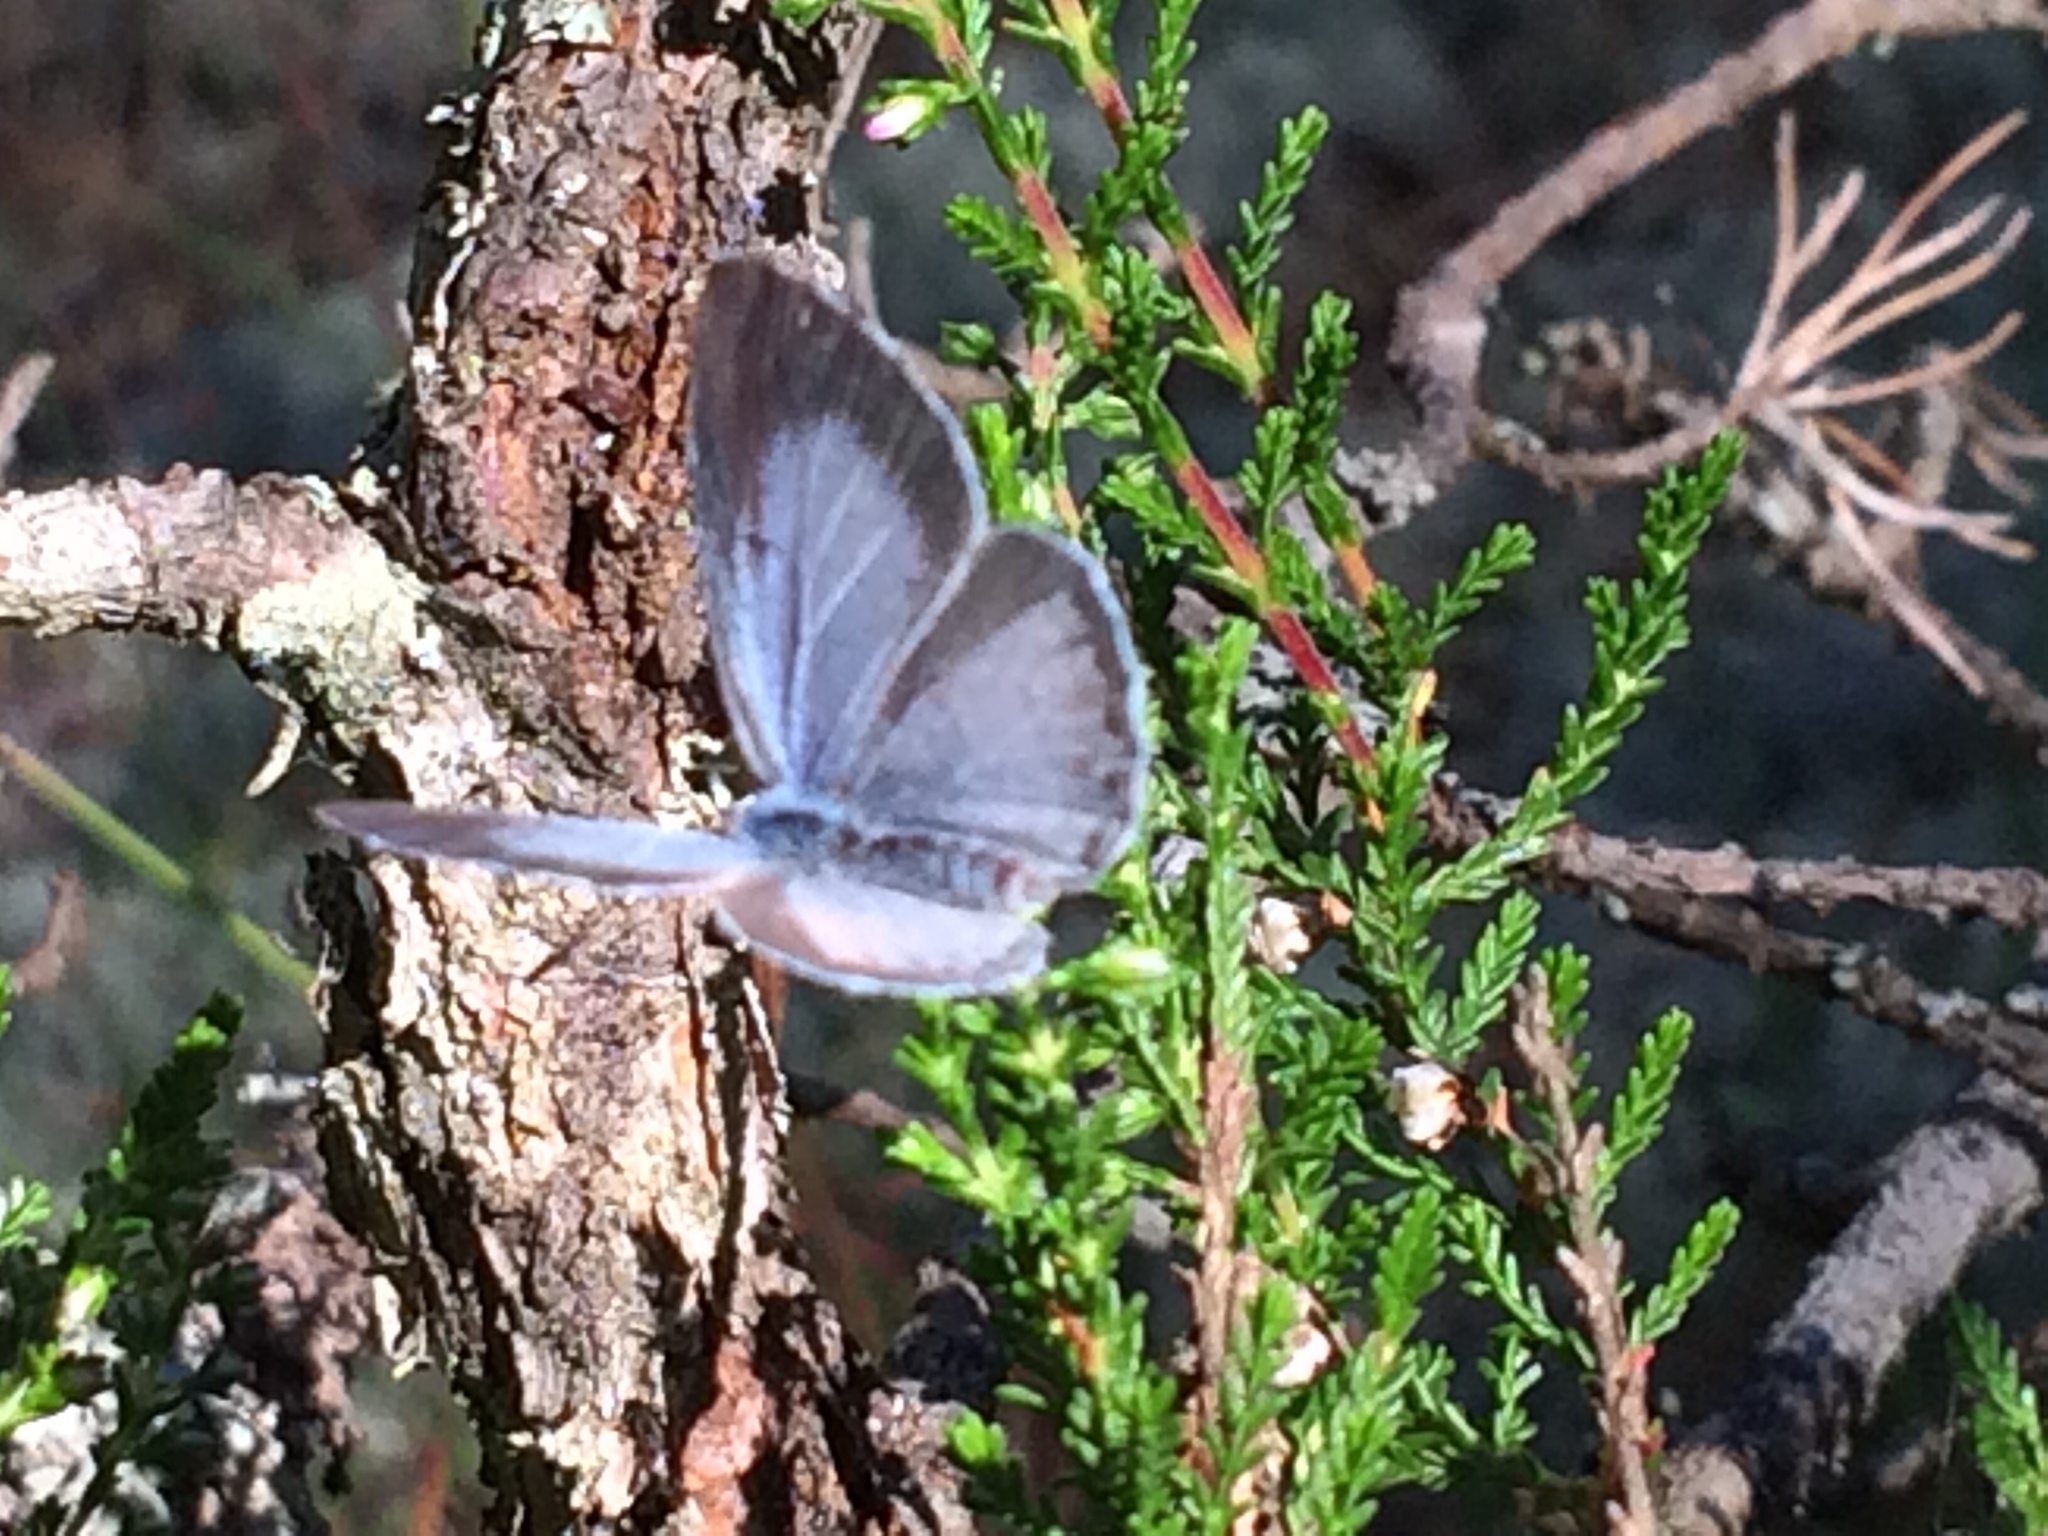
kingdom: Animalia
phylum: Arthropoda
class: Insecta
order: Lepidoptera
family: Lycaenidae
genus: Celastrina
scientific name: Celastrina argiolus
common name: Holly blue
